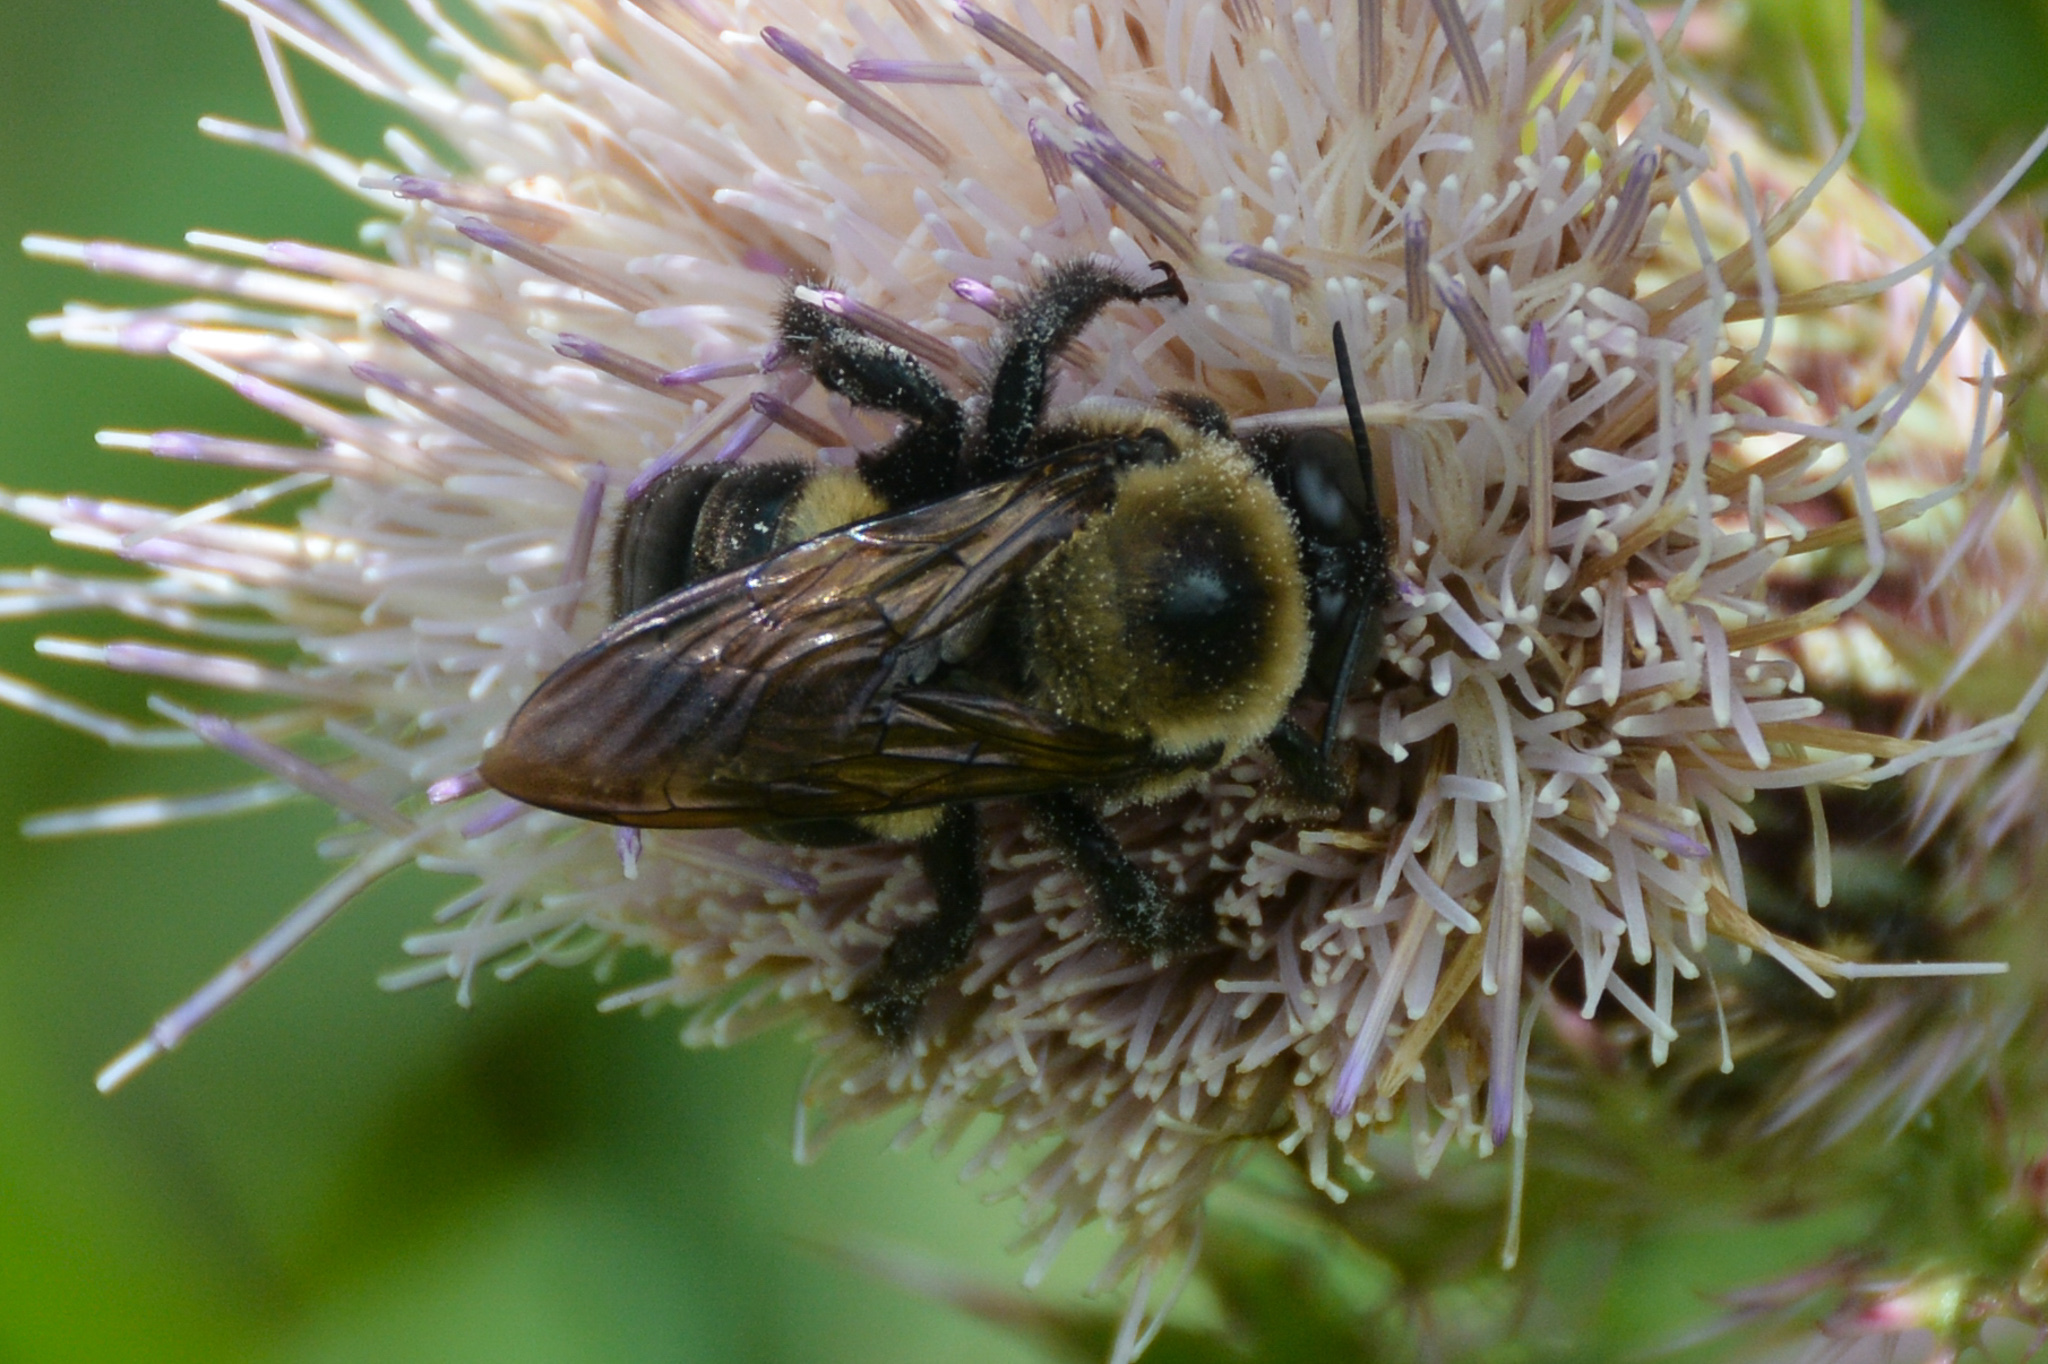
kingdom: Animalia
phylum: Arthropoda
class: Insecta
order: Hymenoptera
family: Apidae
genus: Xylocopa
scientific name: Xylocopa virginica
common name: Carpenter bee
